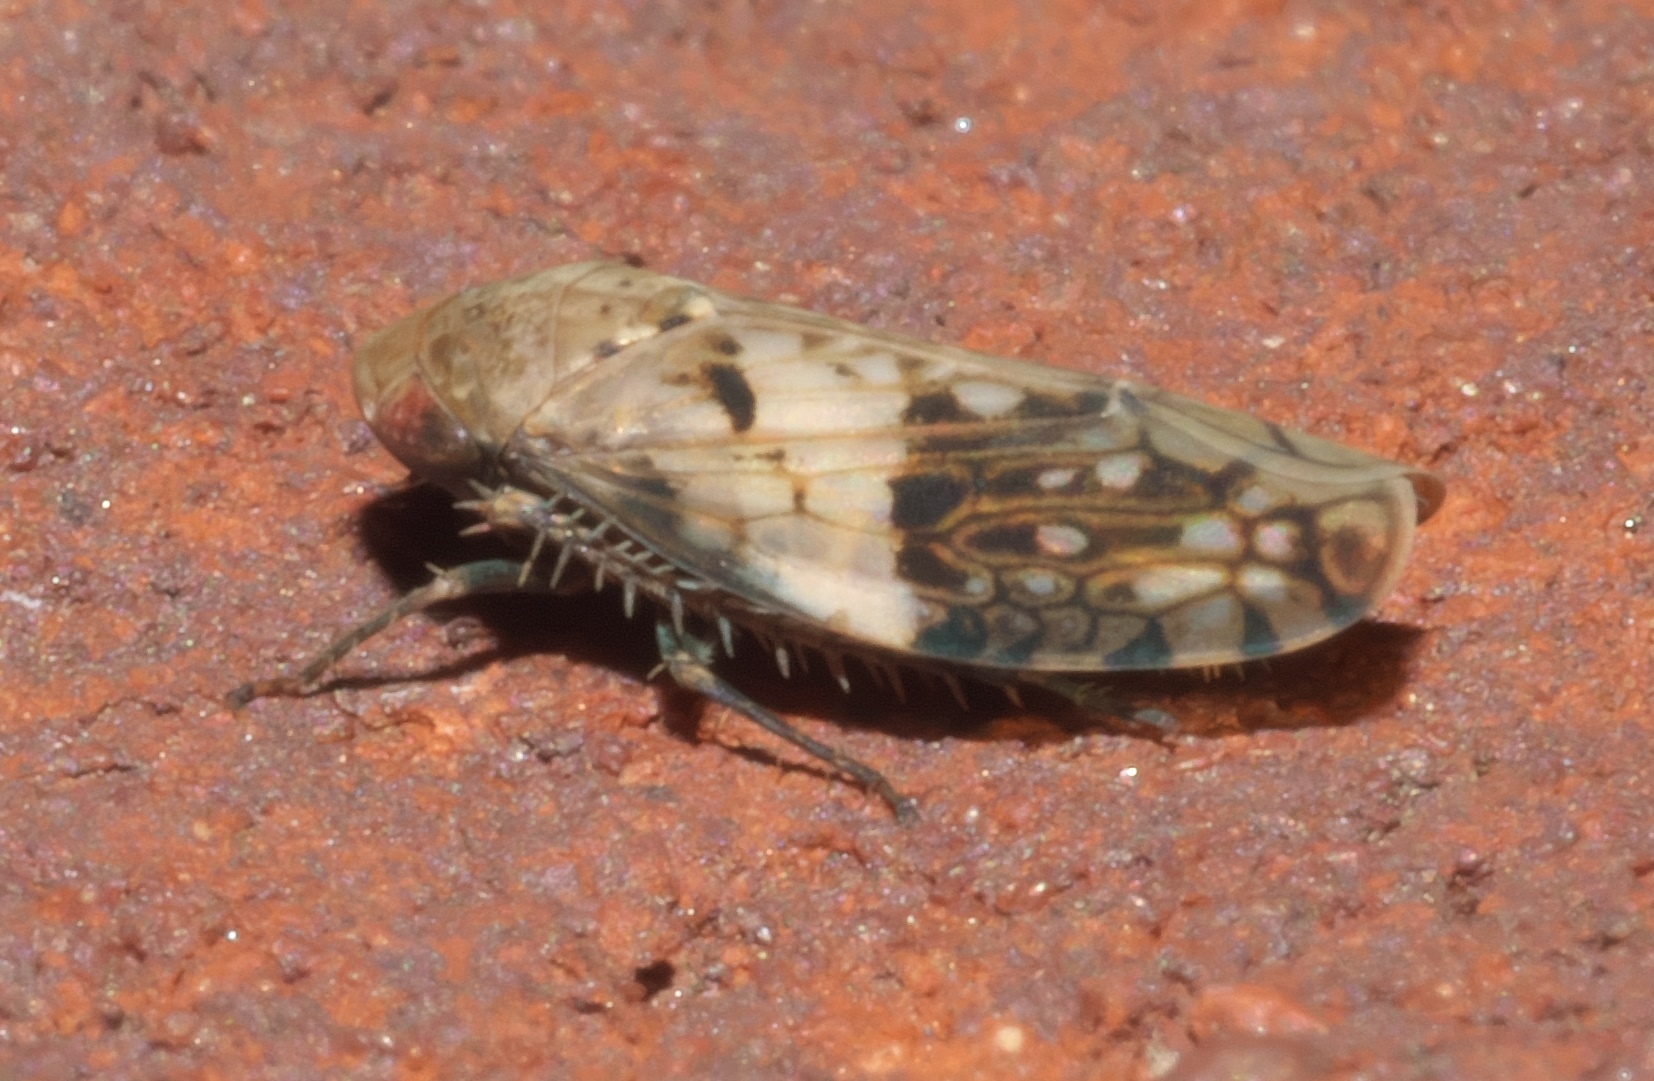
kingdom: Animalia
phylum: Arthropoda
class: Insecta
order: Hemiptera
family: Cicadellidae
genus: Menosoma
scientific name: Menosoma cinctum
